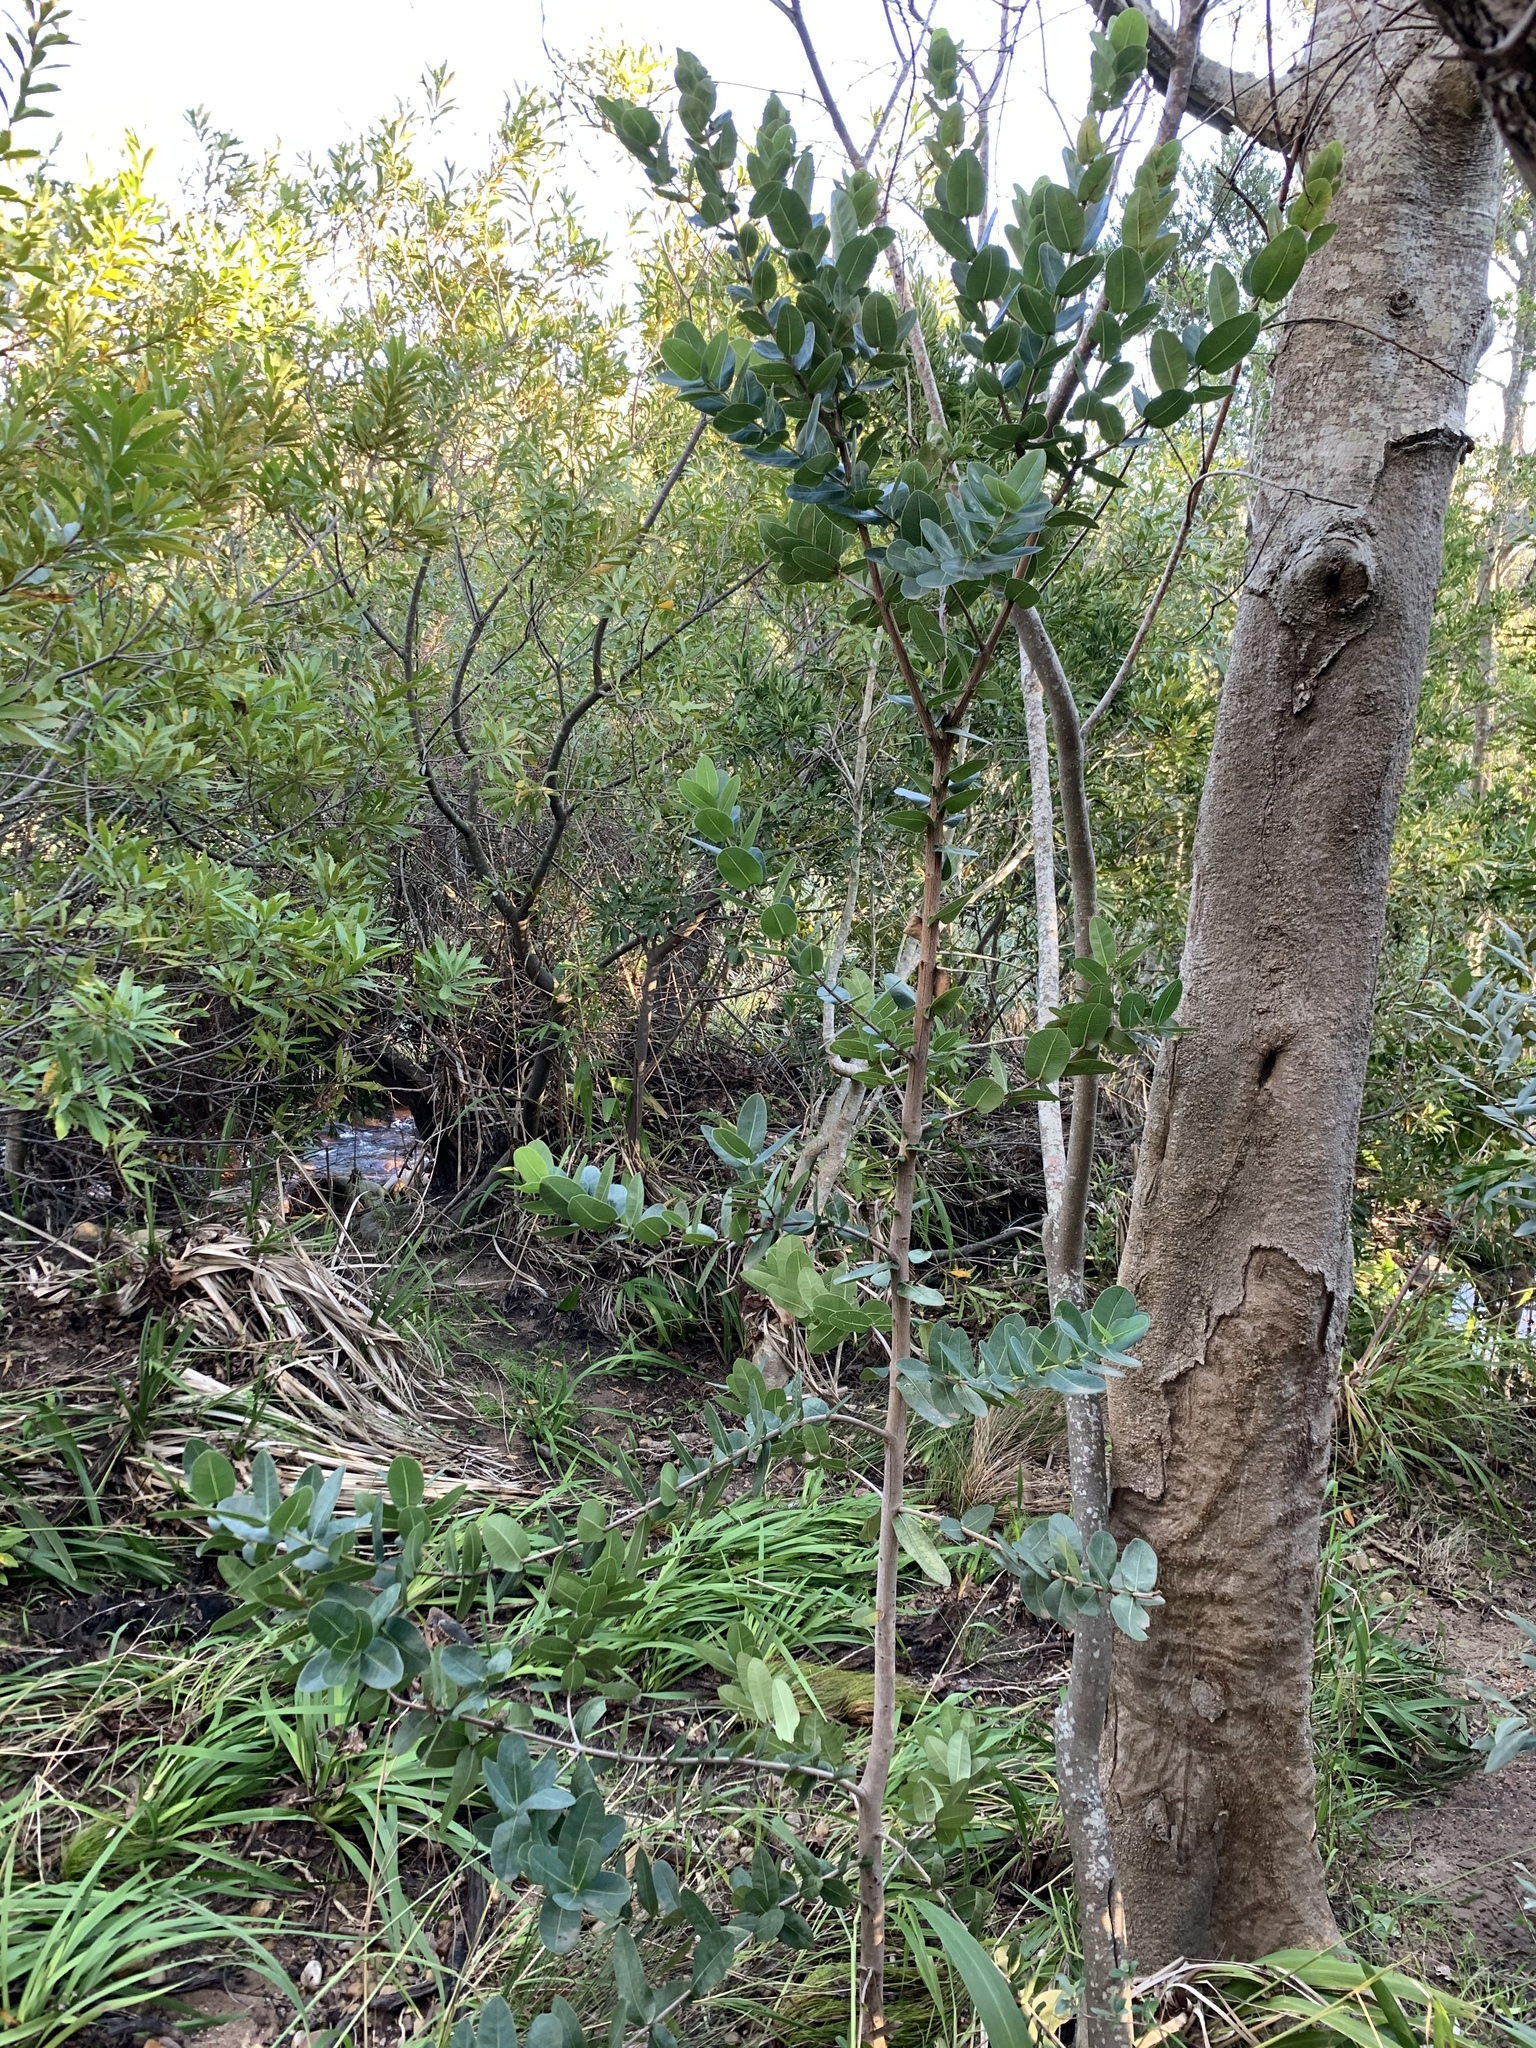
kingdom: Plantae
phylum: Tracheophyta
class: Magnoliopsida
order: Myrtales
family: Myrtaceae
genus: Syzygium
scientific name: Syzygium cordatum
